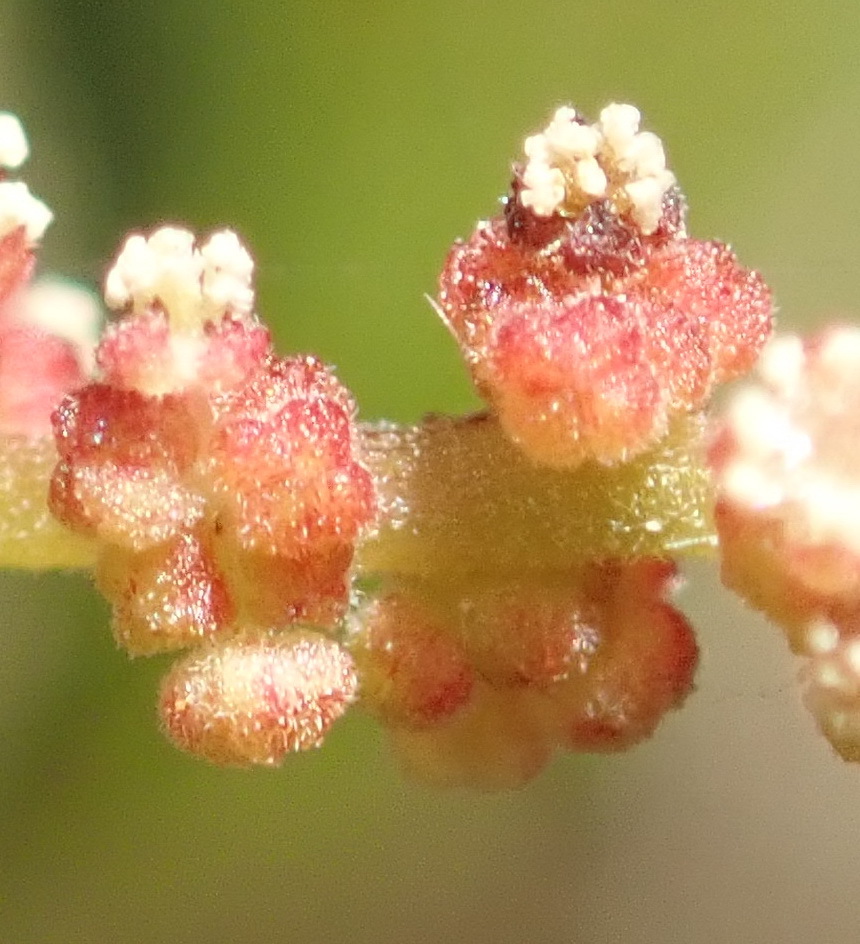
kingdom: Plantae
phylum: Tracheophyta
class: Magnoliopsida
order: Malpighiales
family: Euphorbiaceae
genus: Bernardia
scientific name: Bernardia corensis
